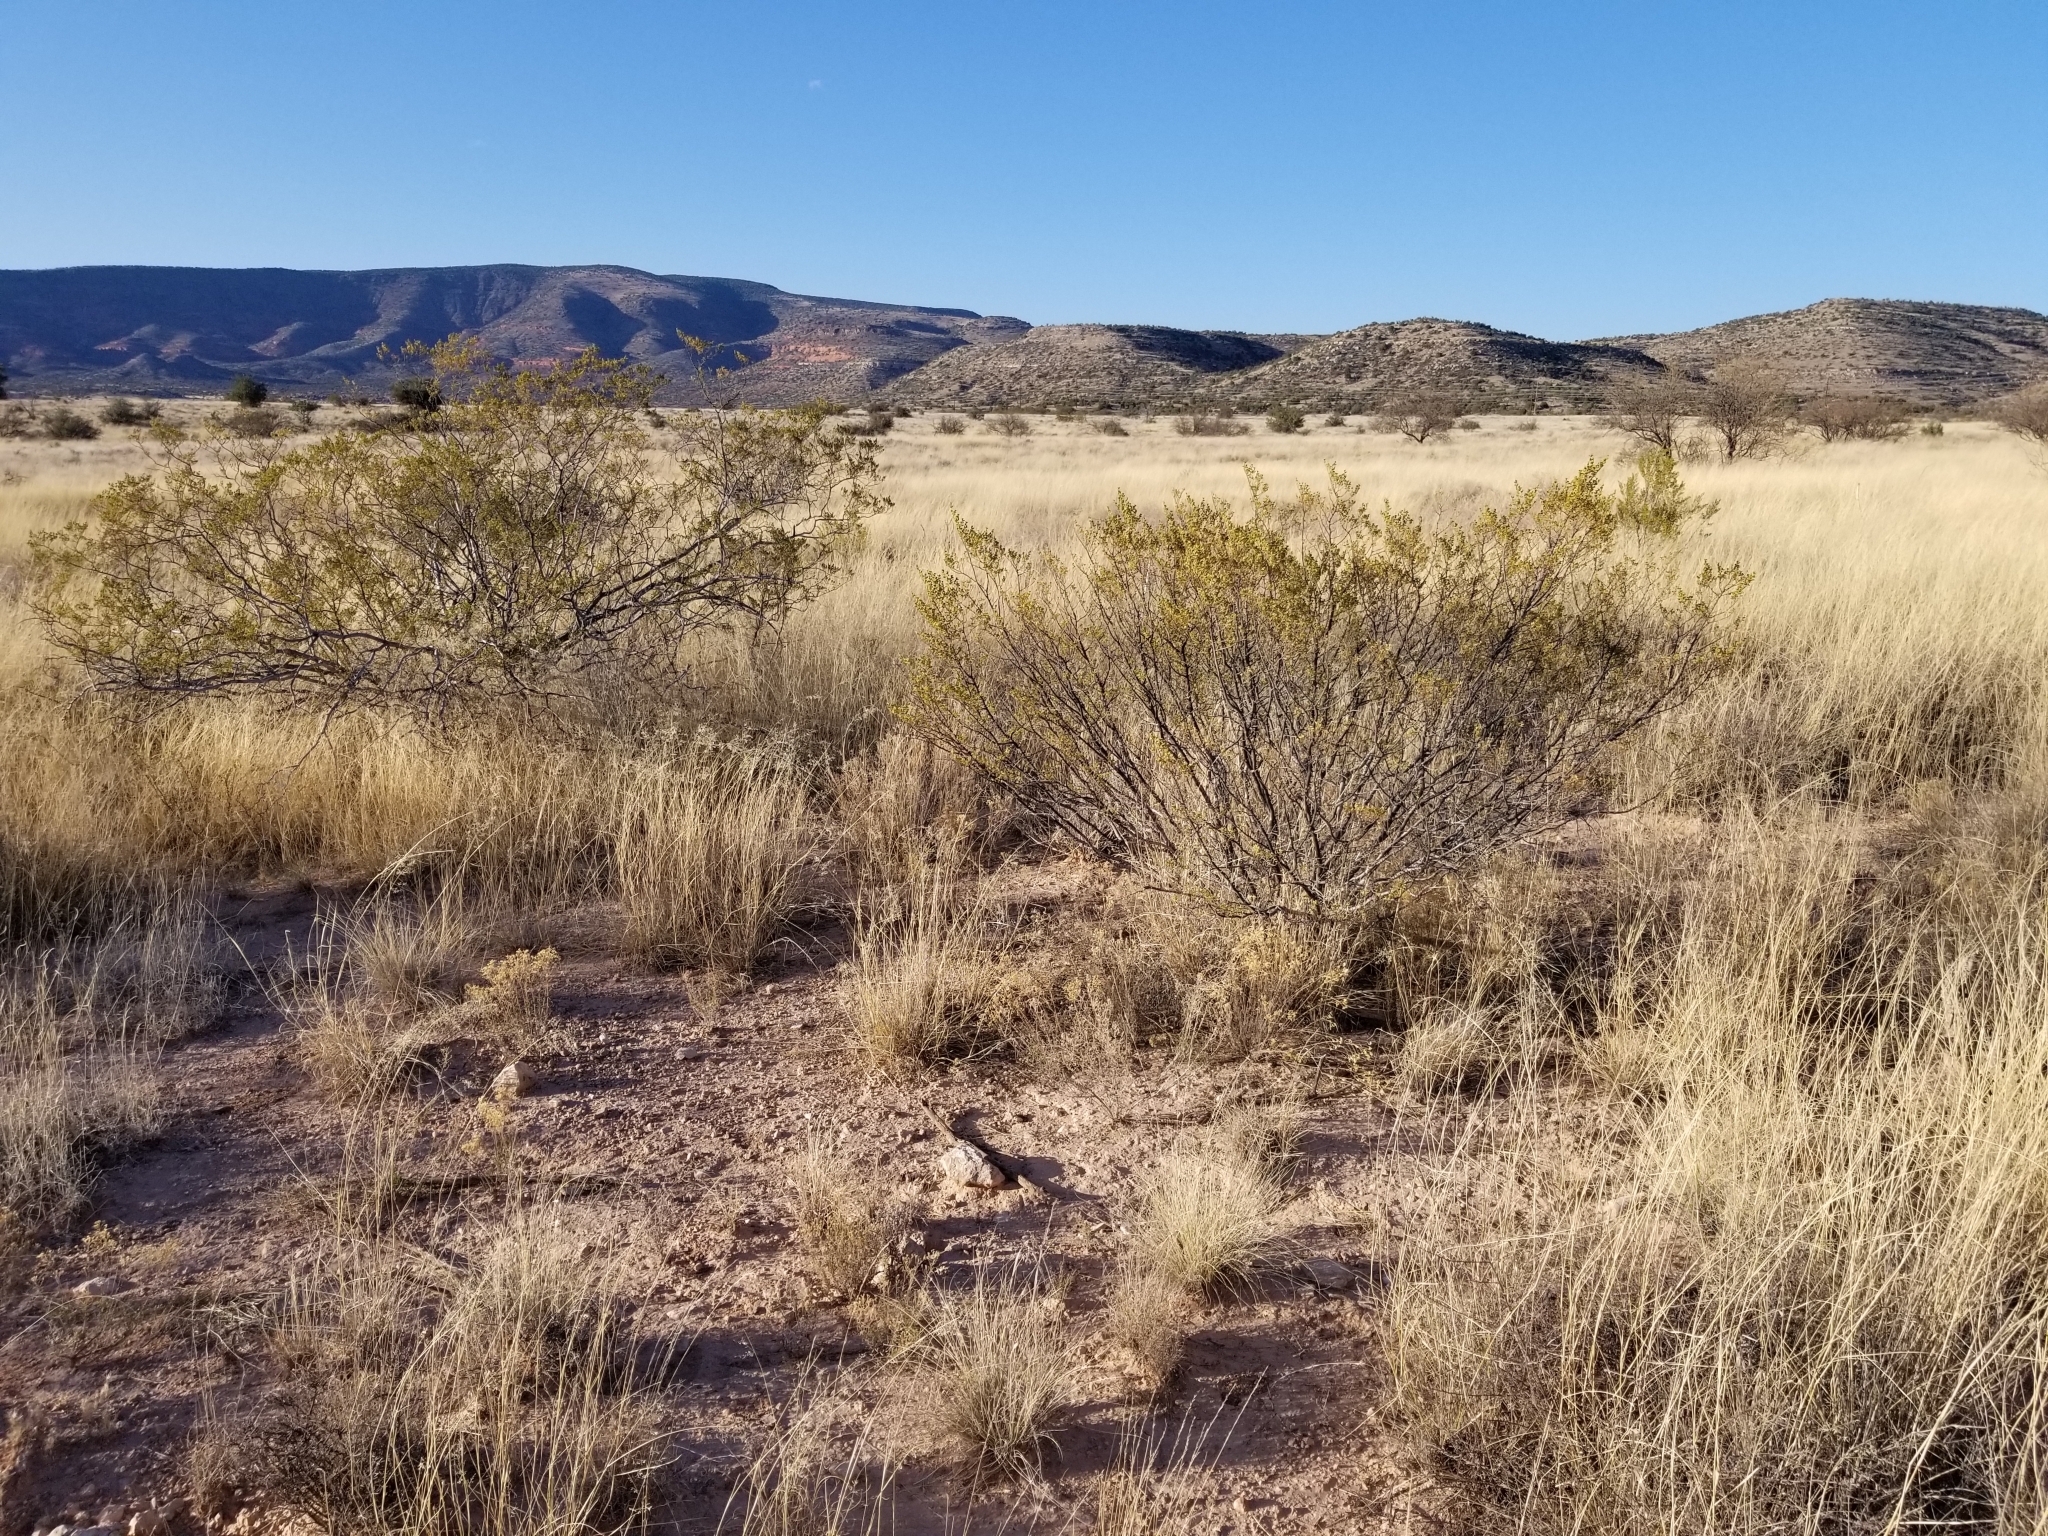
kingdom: Plantae
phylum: Tracheophyta
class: Magnoliopsida
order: Zygophyllales
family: Zygophyllaceae
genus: Larrea
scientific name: Larrea tridentata
